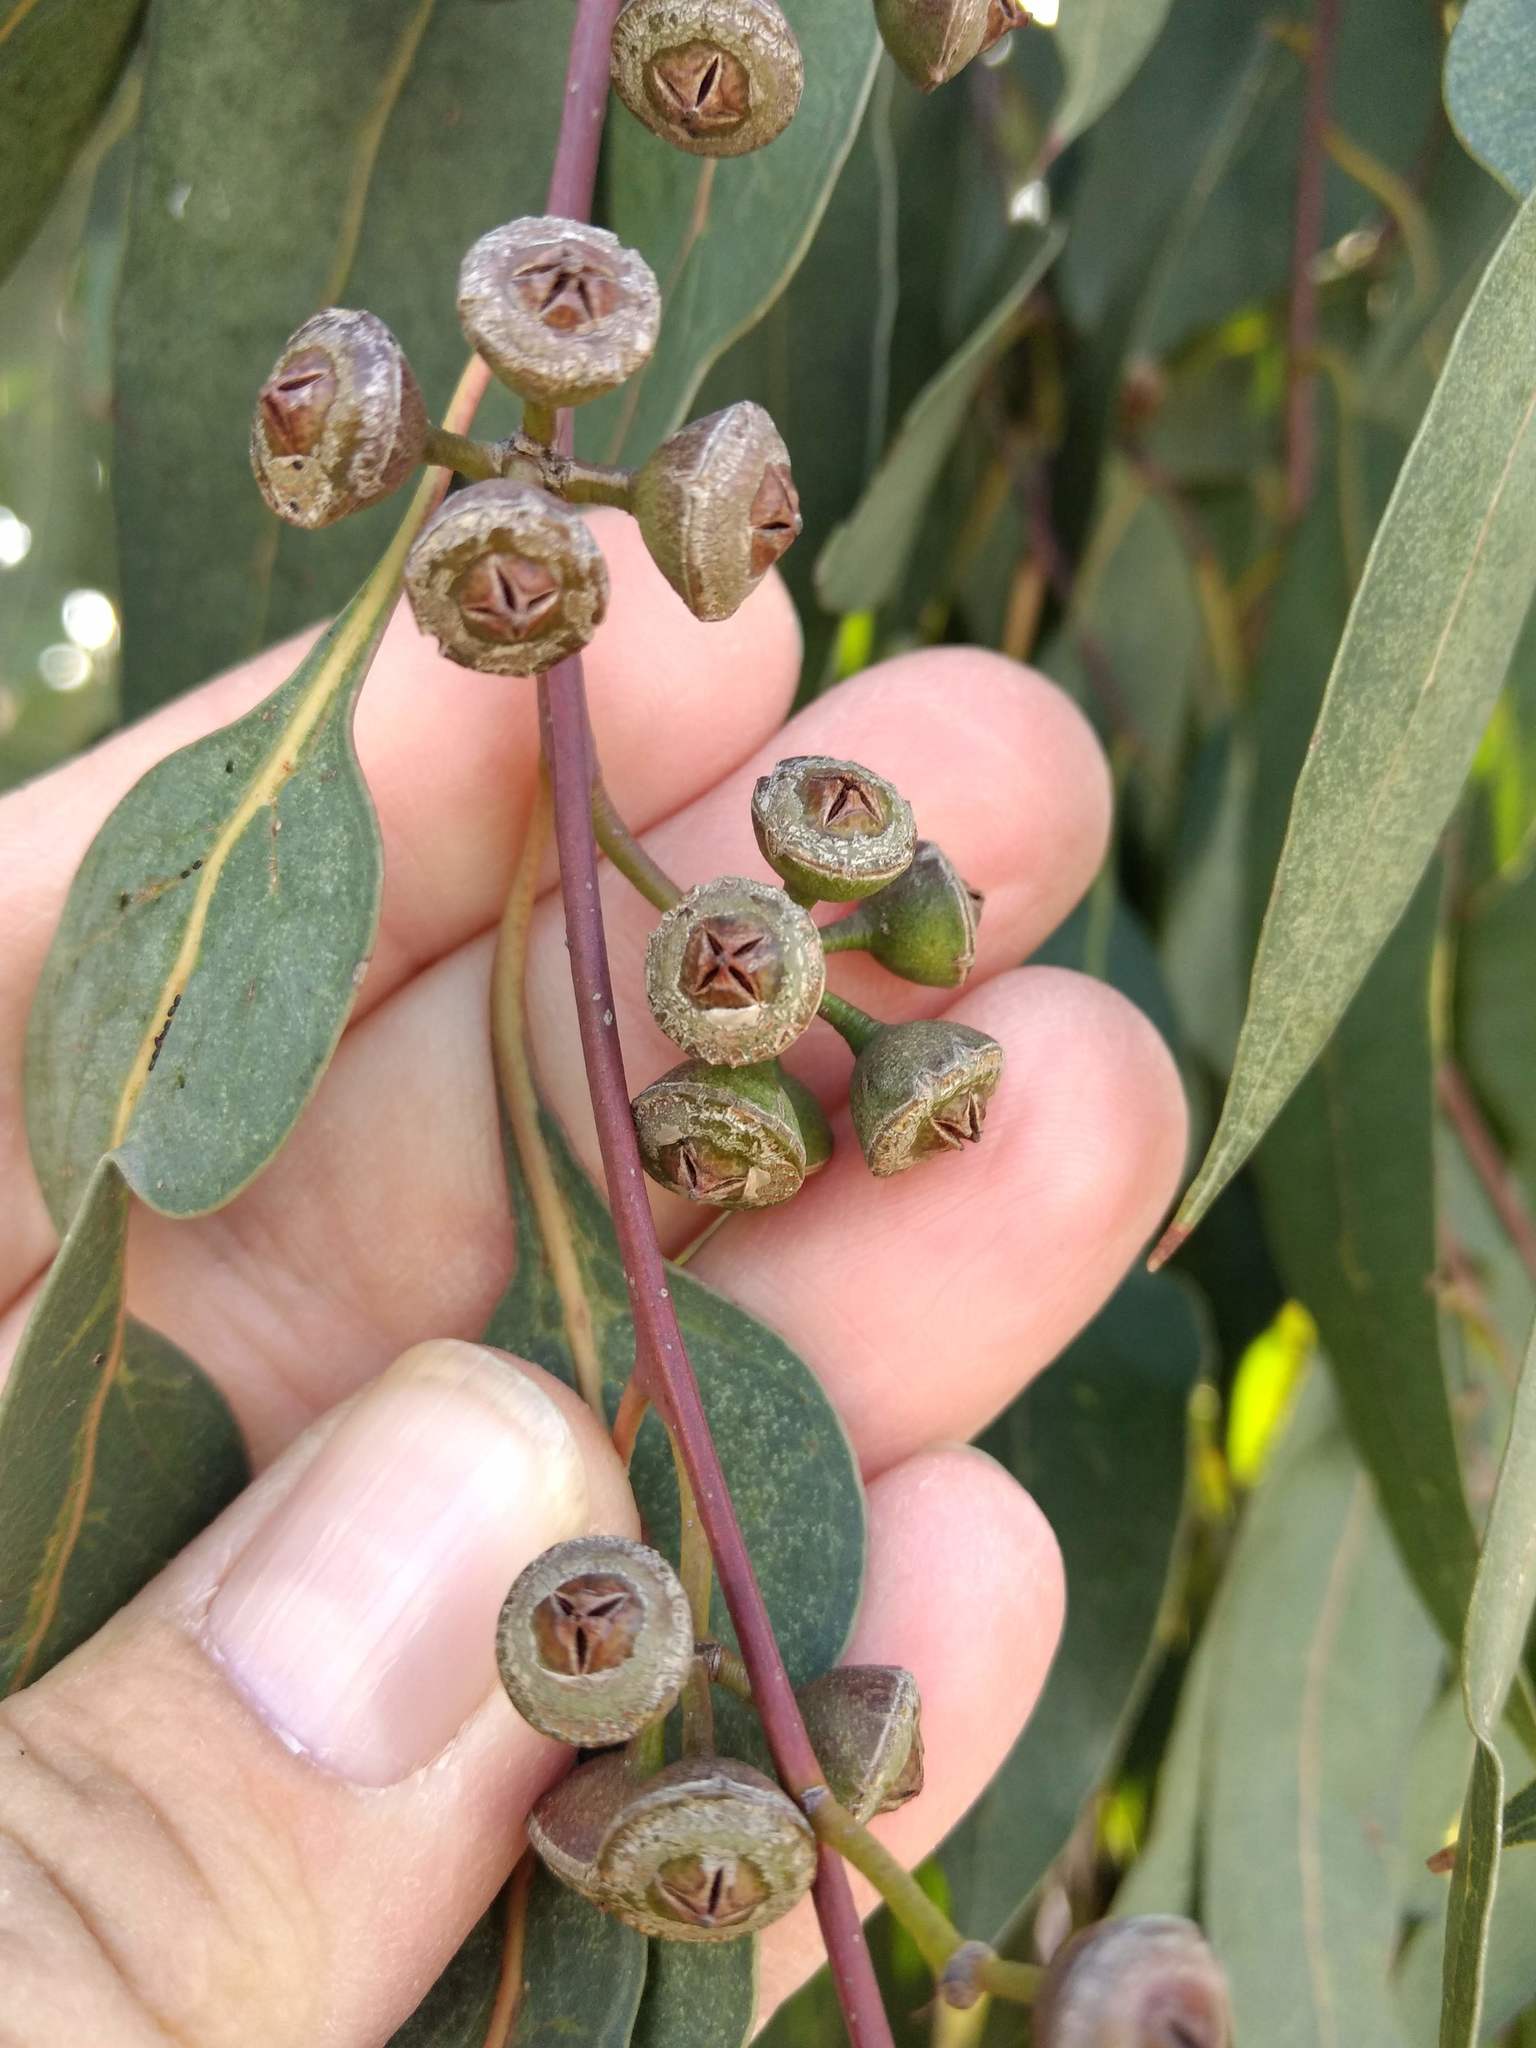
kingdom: Plantae
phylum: Tracheophyta
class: Magnoliopsida
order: Myrtales
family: Myrtaceae
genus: Eucalyptus
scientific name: Eucalyptus camaldulensis
